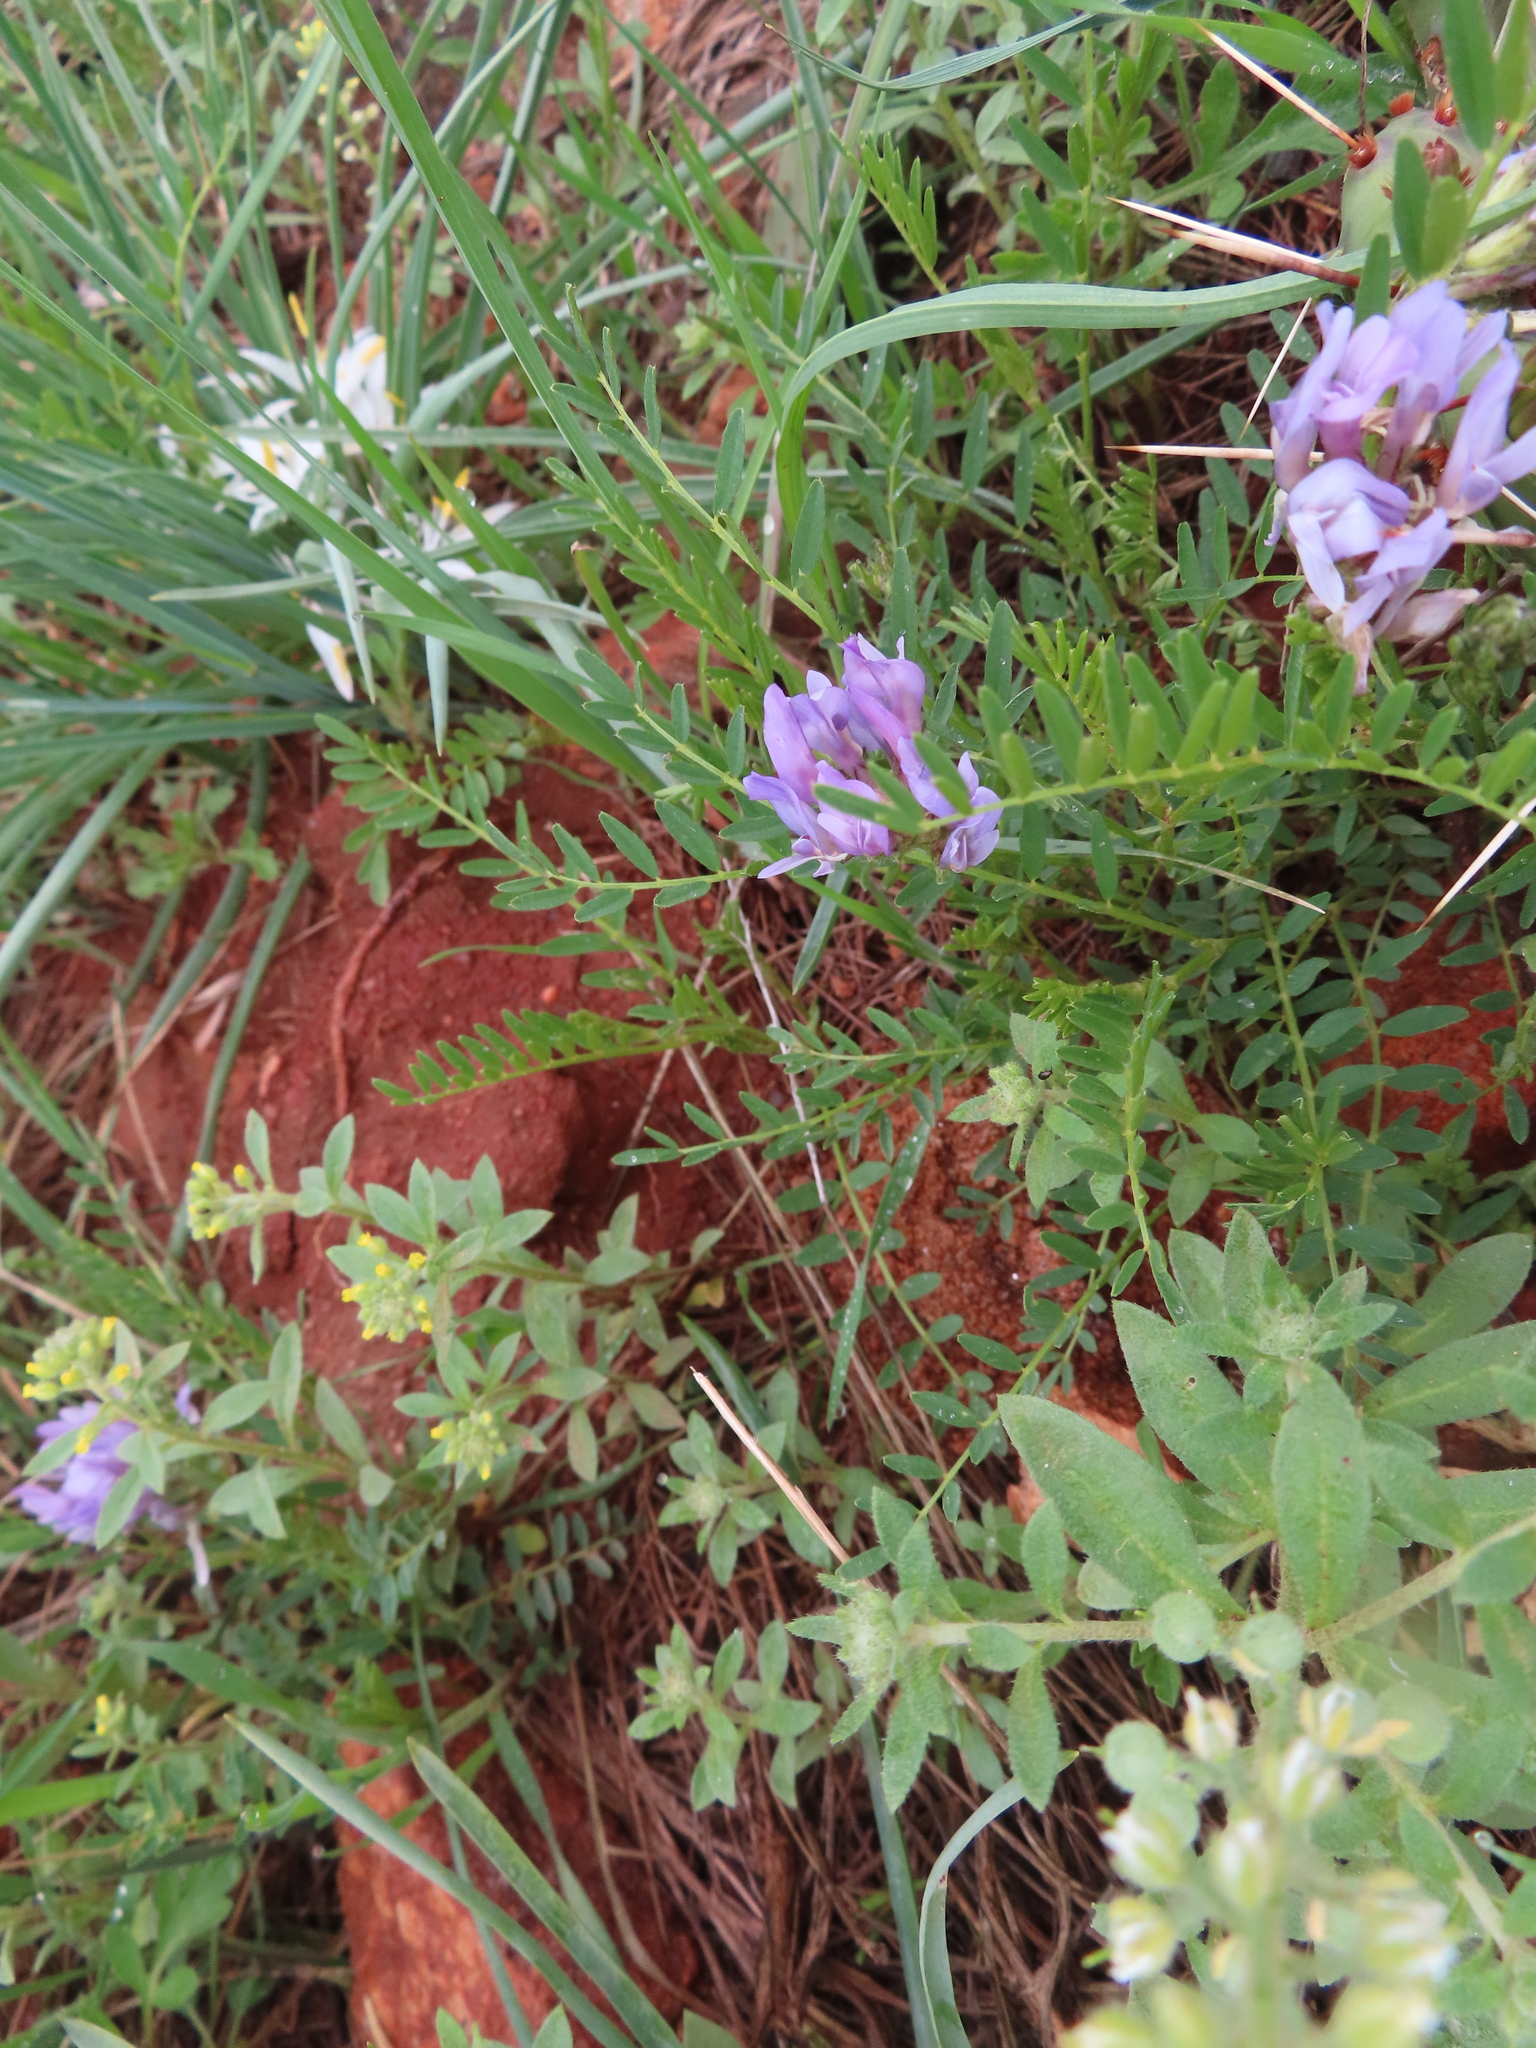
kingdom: Plantae
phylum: Tracheophyta
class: Magnoliopsida
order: Fabales
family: Fabaceae
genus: Astragalus
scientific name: Astragalus agrestis
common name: Field milk-vetch
